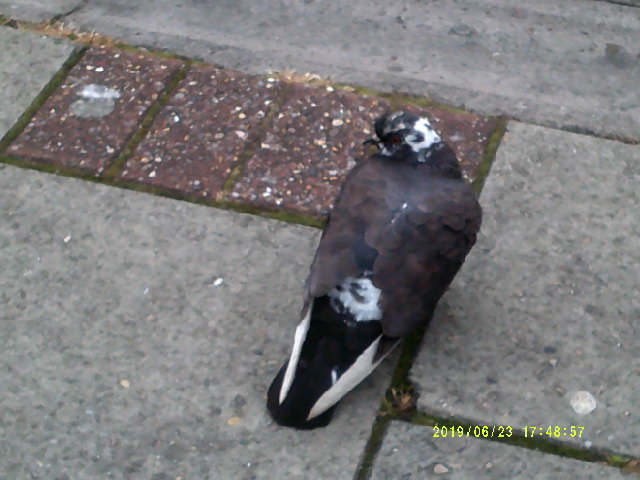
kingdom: Animalia
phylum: Chordata
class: Aves
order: Columbiformes
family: Columbidae
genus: Columba
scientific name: Columba livia
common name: Rock pigeon
